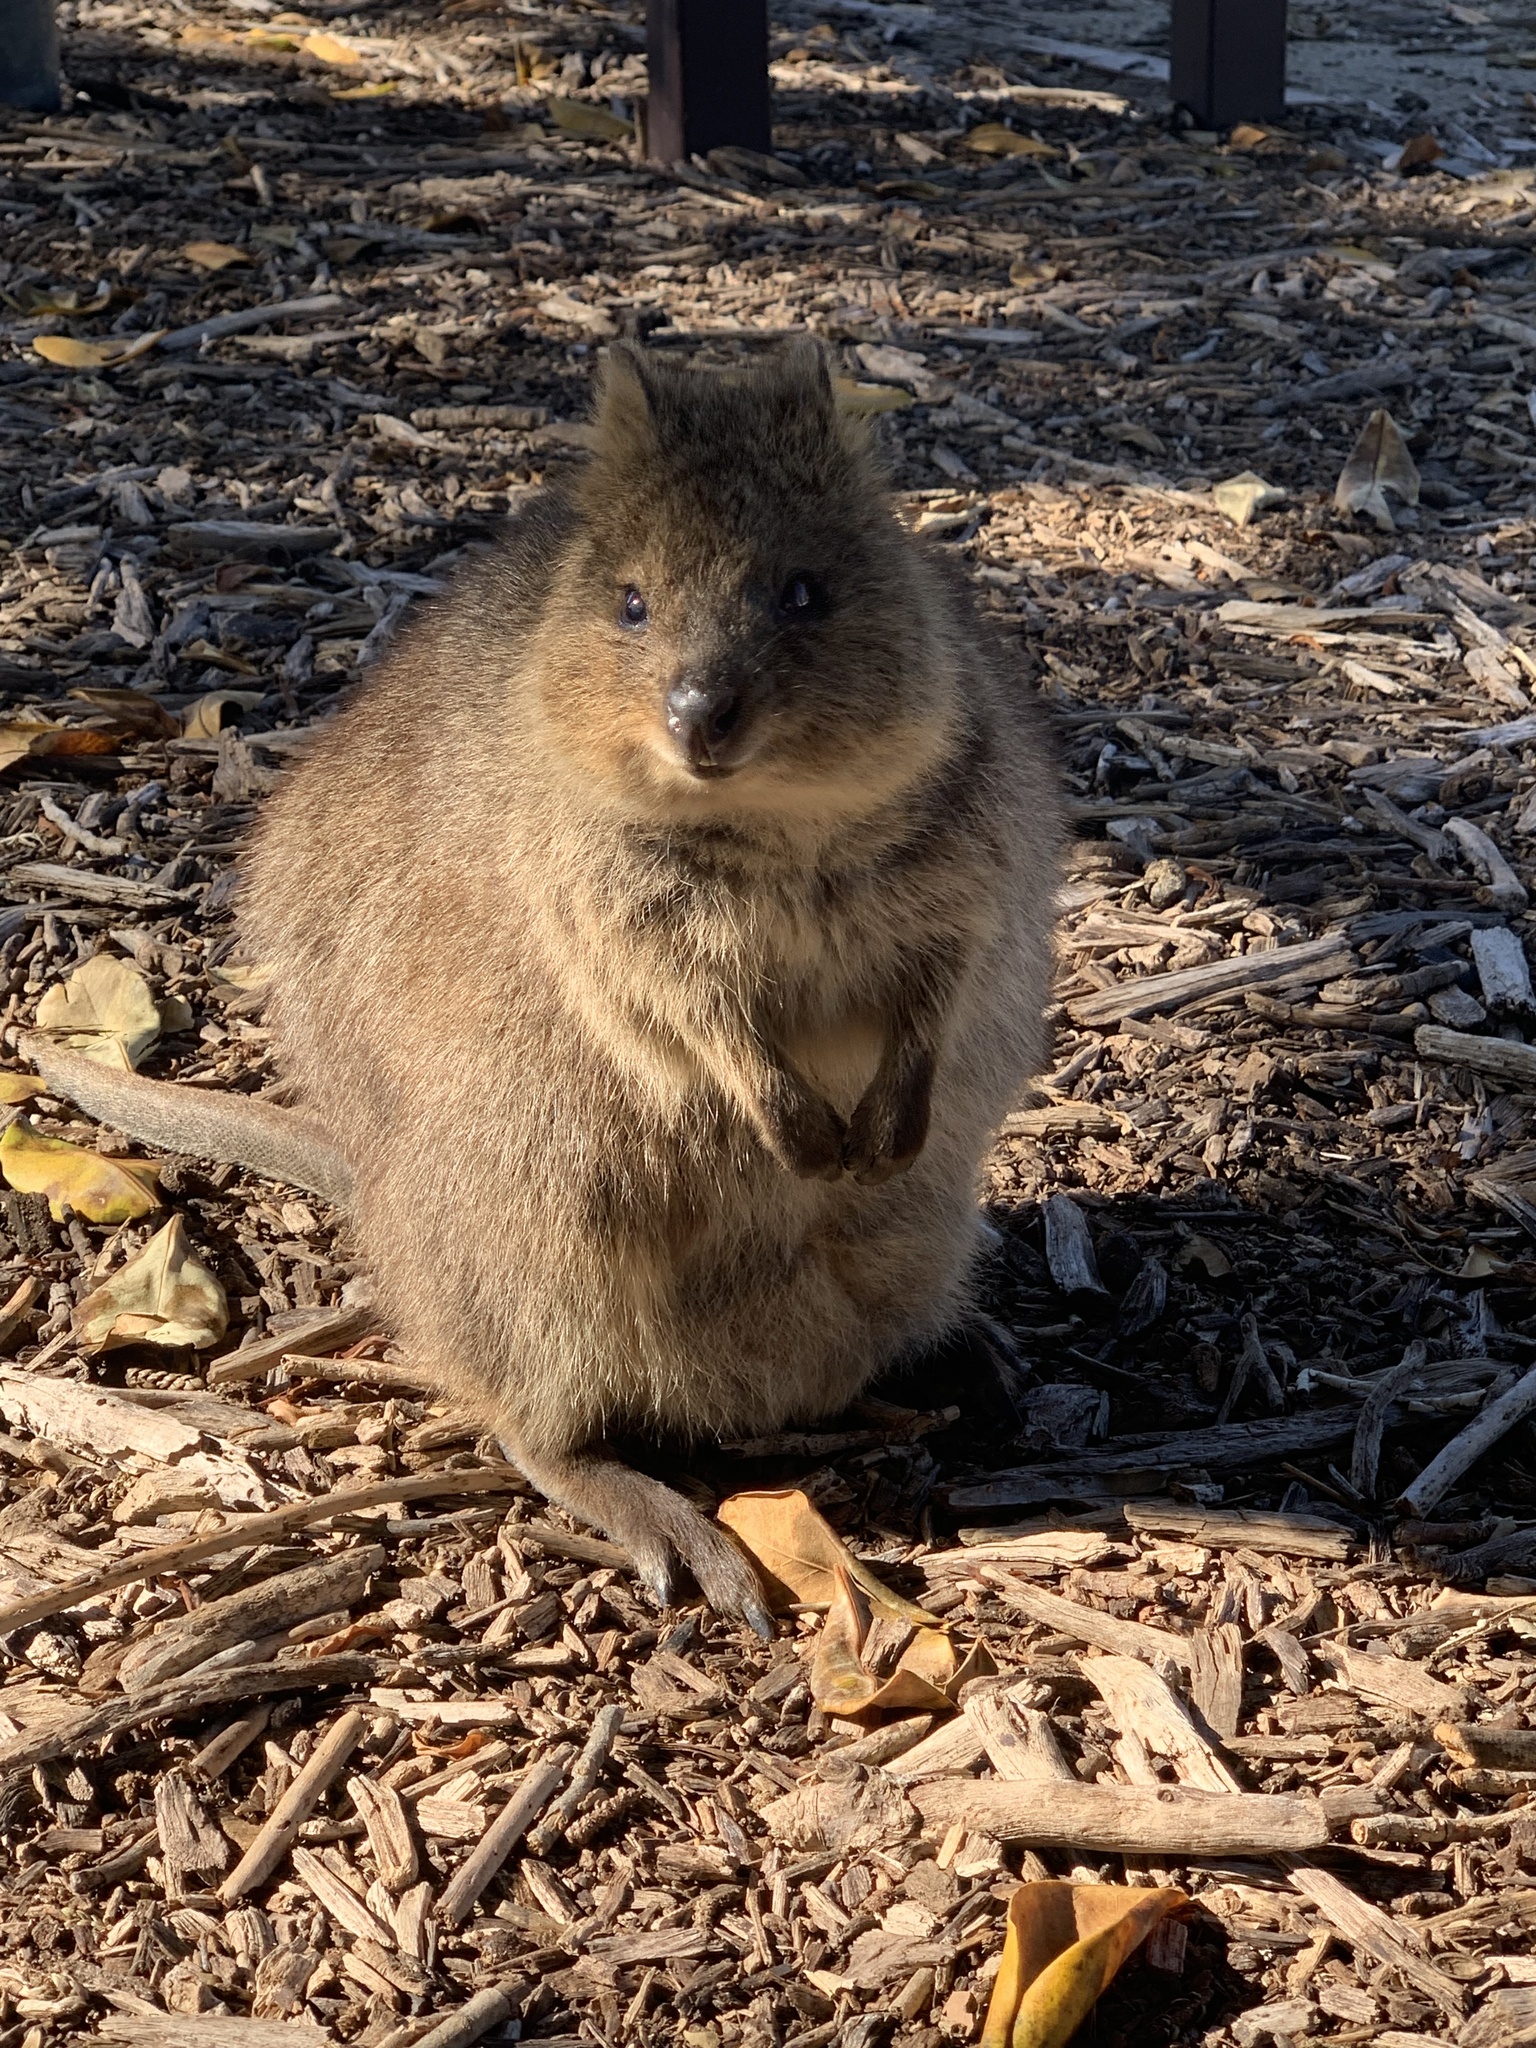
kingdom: Animalia
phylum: Chordata
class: Mammalia
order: Diprotodontia
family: Macropodidae
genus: Setonix
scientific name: Setonix brachyurus
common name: Quokka
